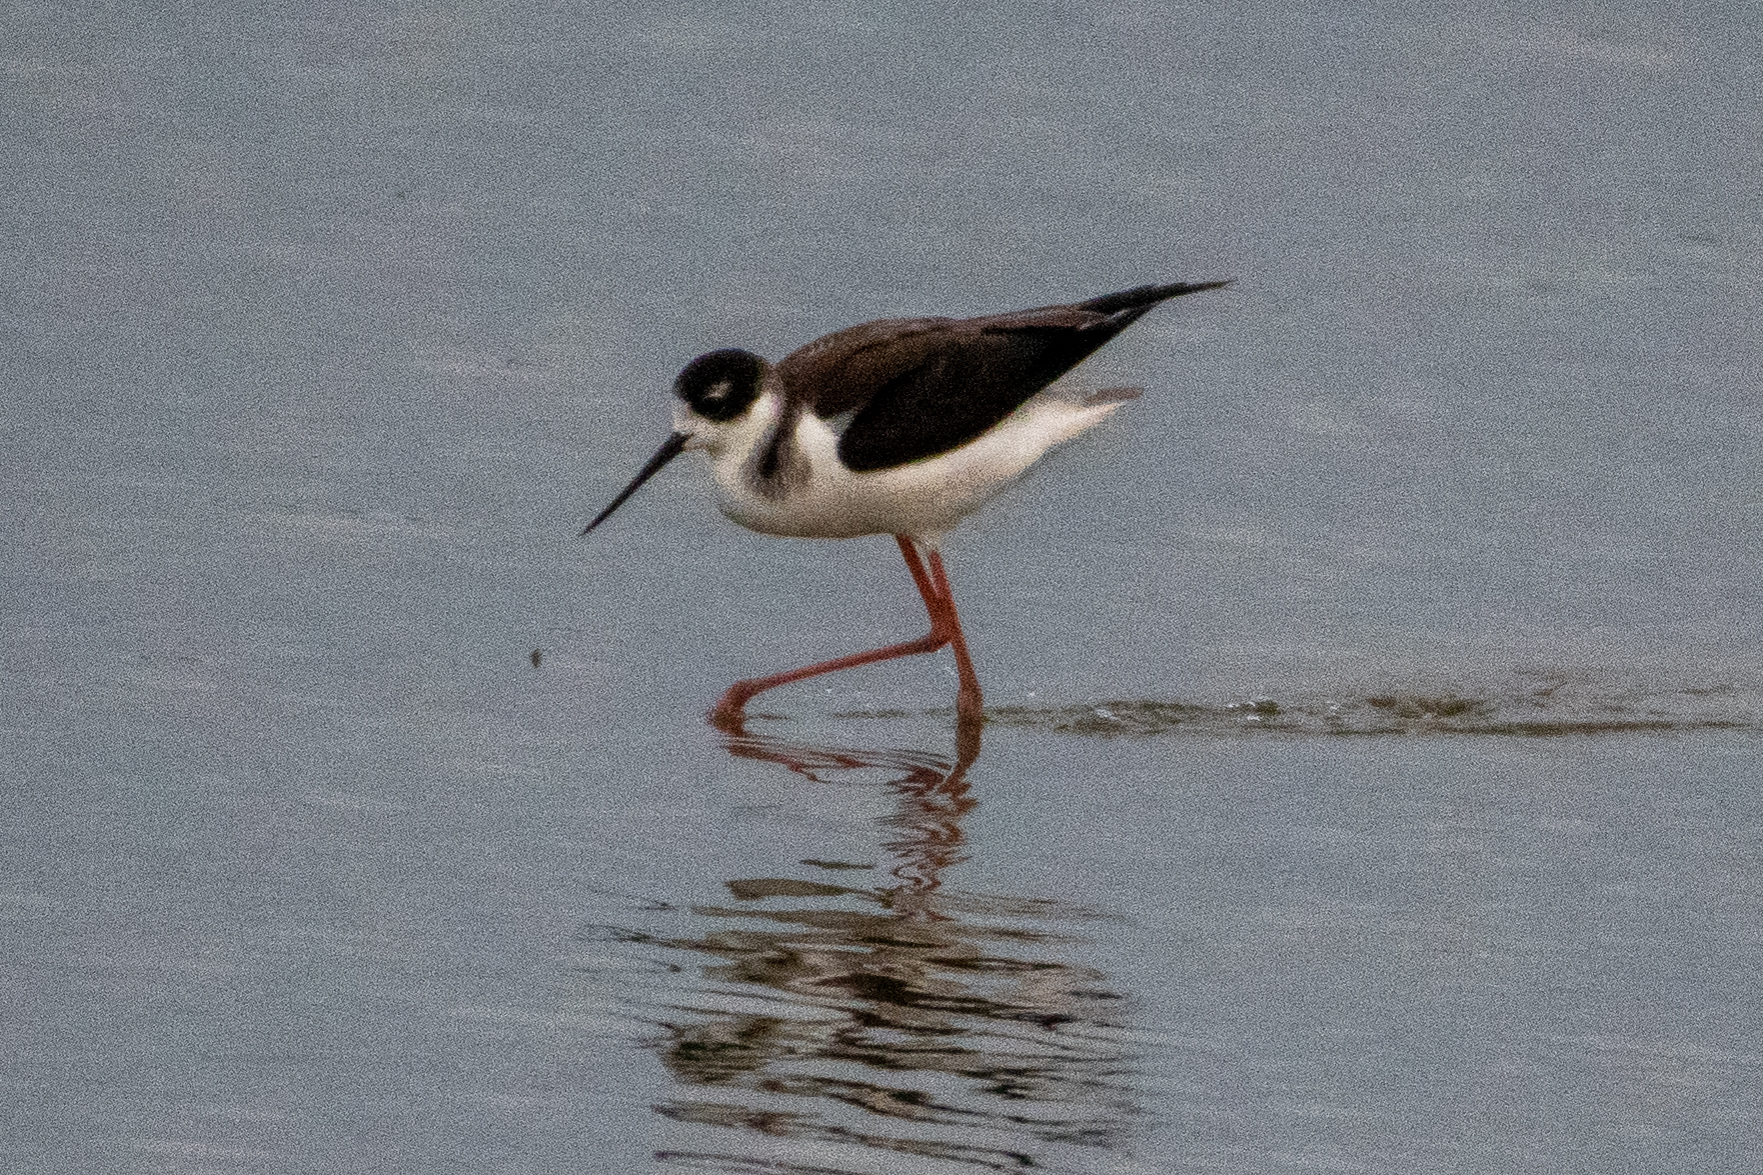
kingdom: Animalia
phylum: Chordata
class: Aves
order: Charadriiformes
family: Recurvirostridae
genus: Himantopus
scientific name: Himantopus mexicanus
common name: Black-necked stilt
